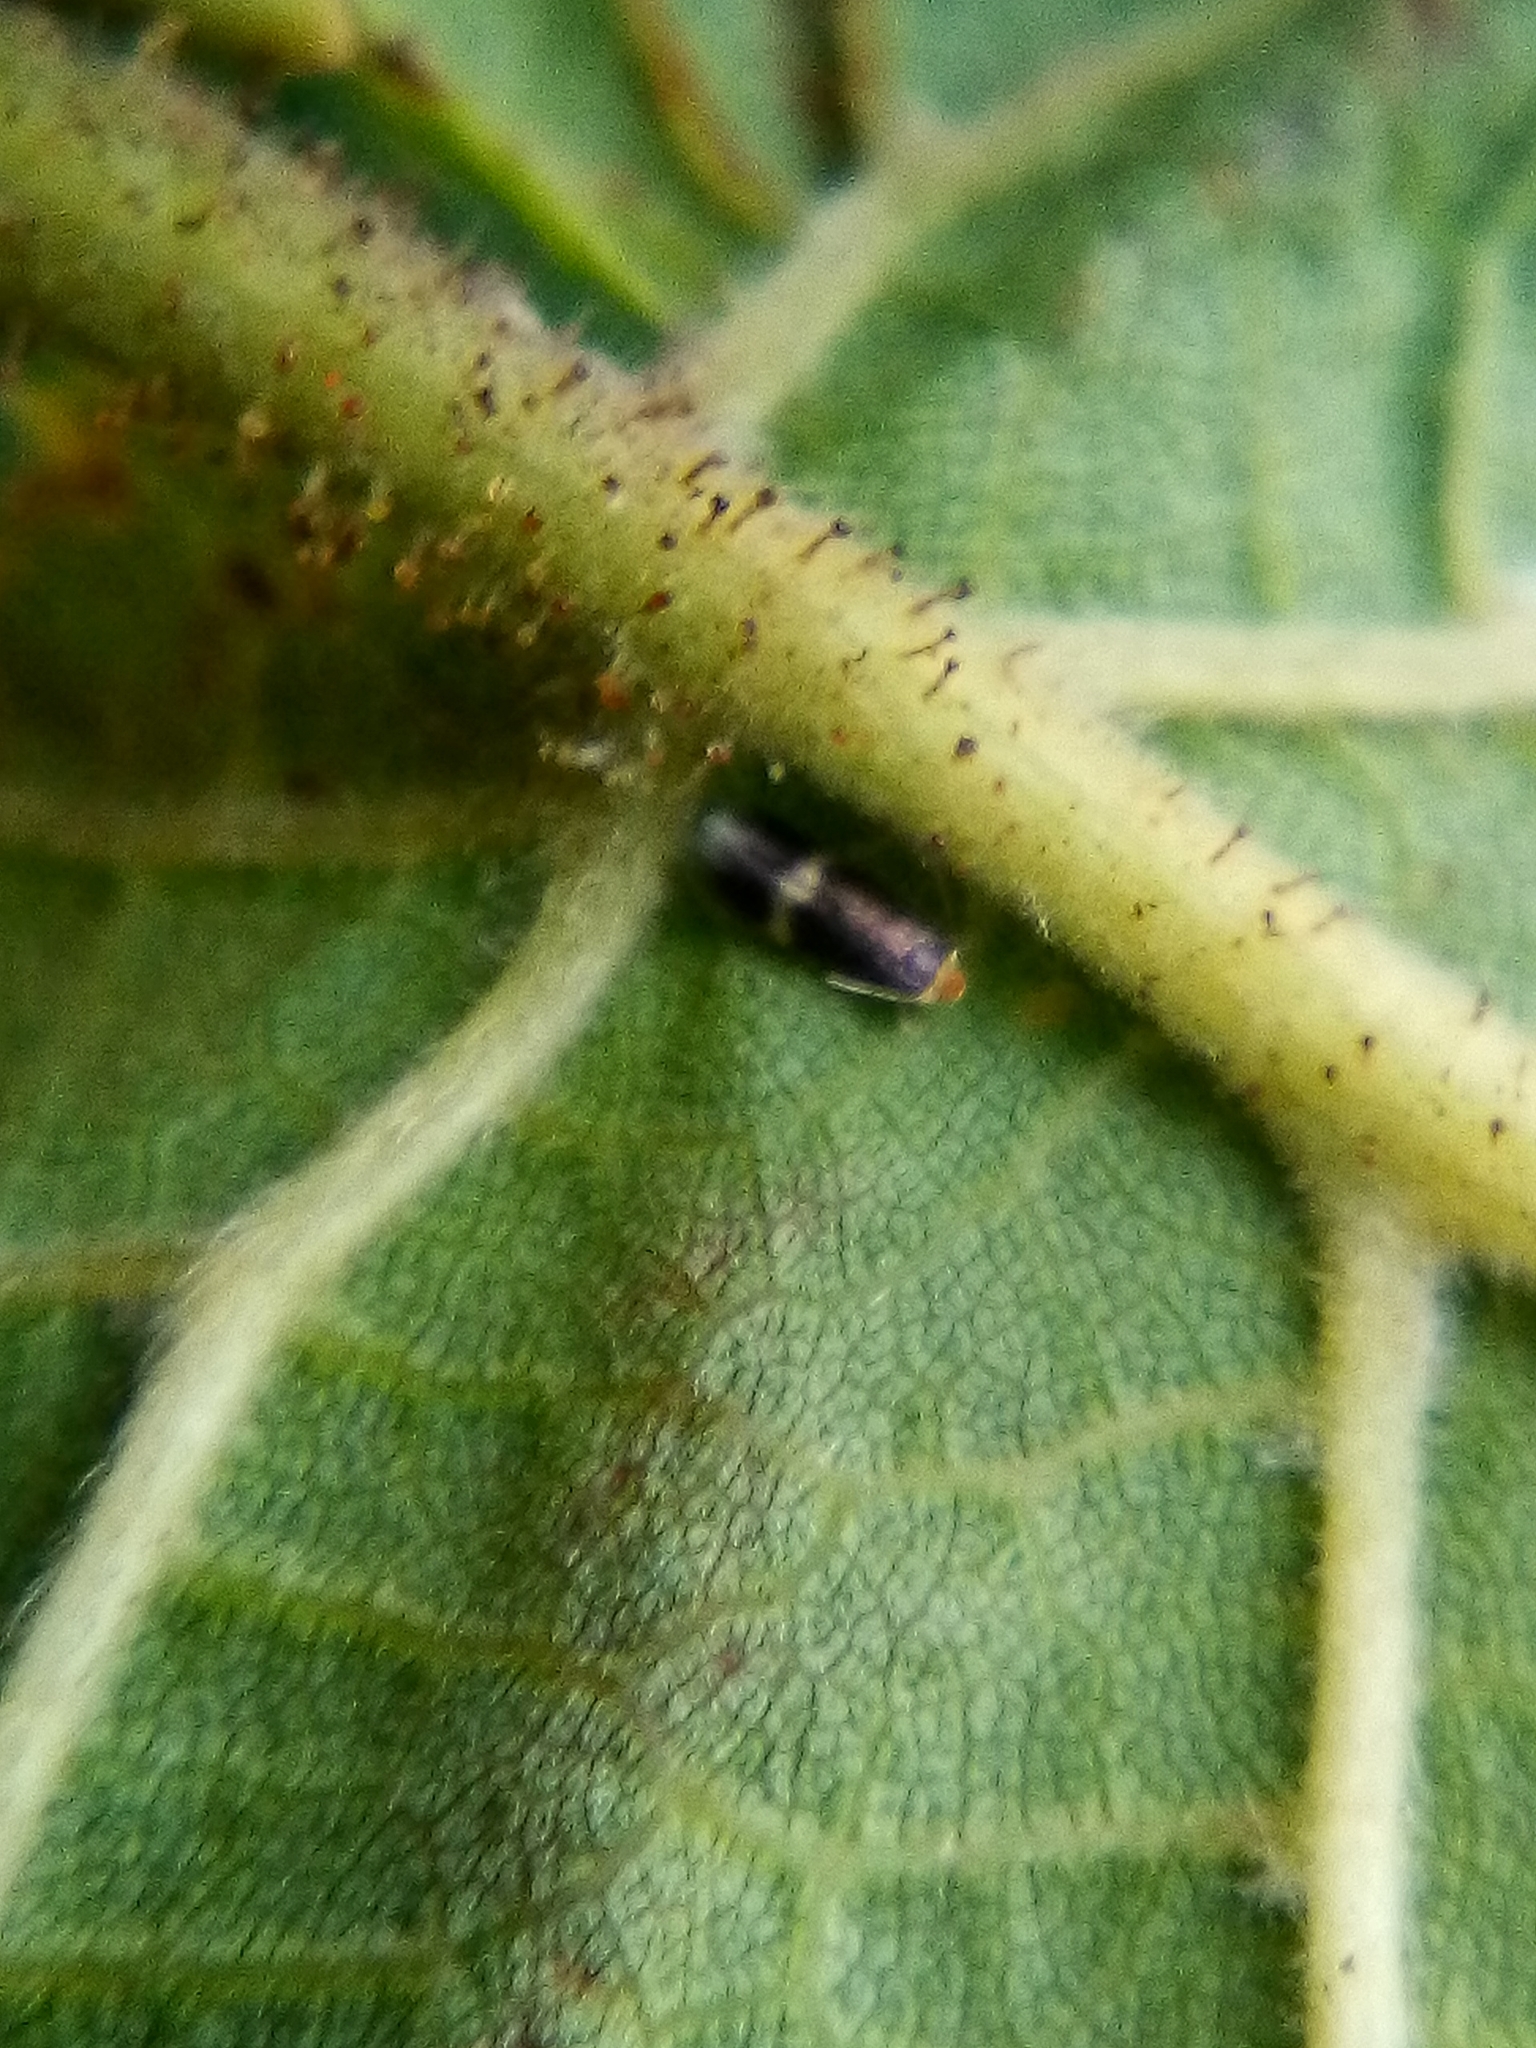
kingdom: Animalia
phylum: Arthropoda
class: Insecta
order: Lepidoptera
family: Nepticulidae
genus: Stigmella
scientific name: Stigmella microtheriella
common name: Nut-tree pigmy
